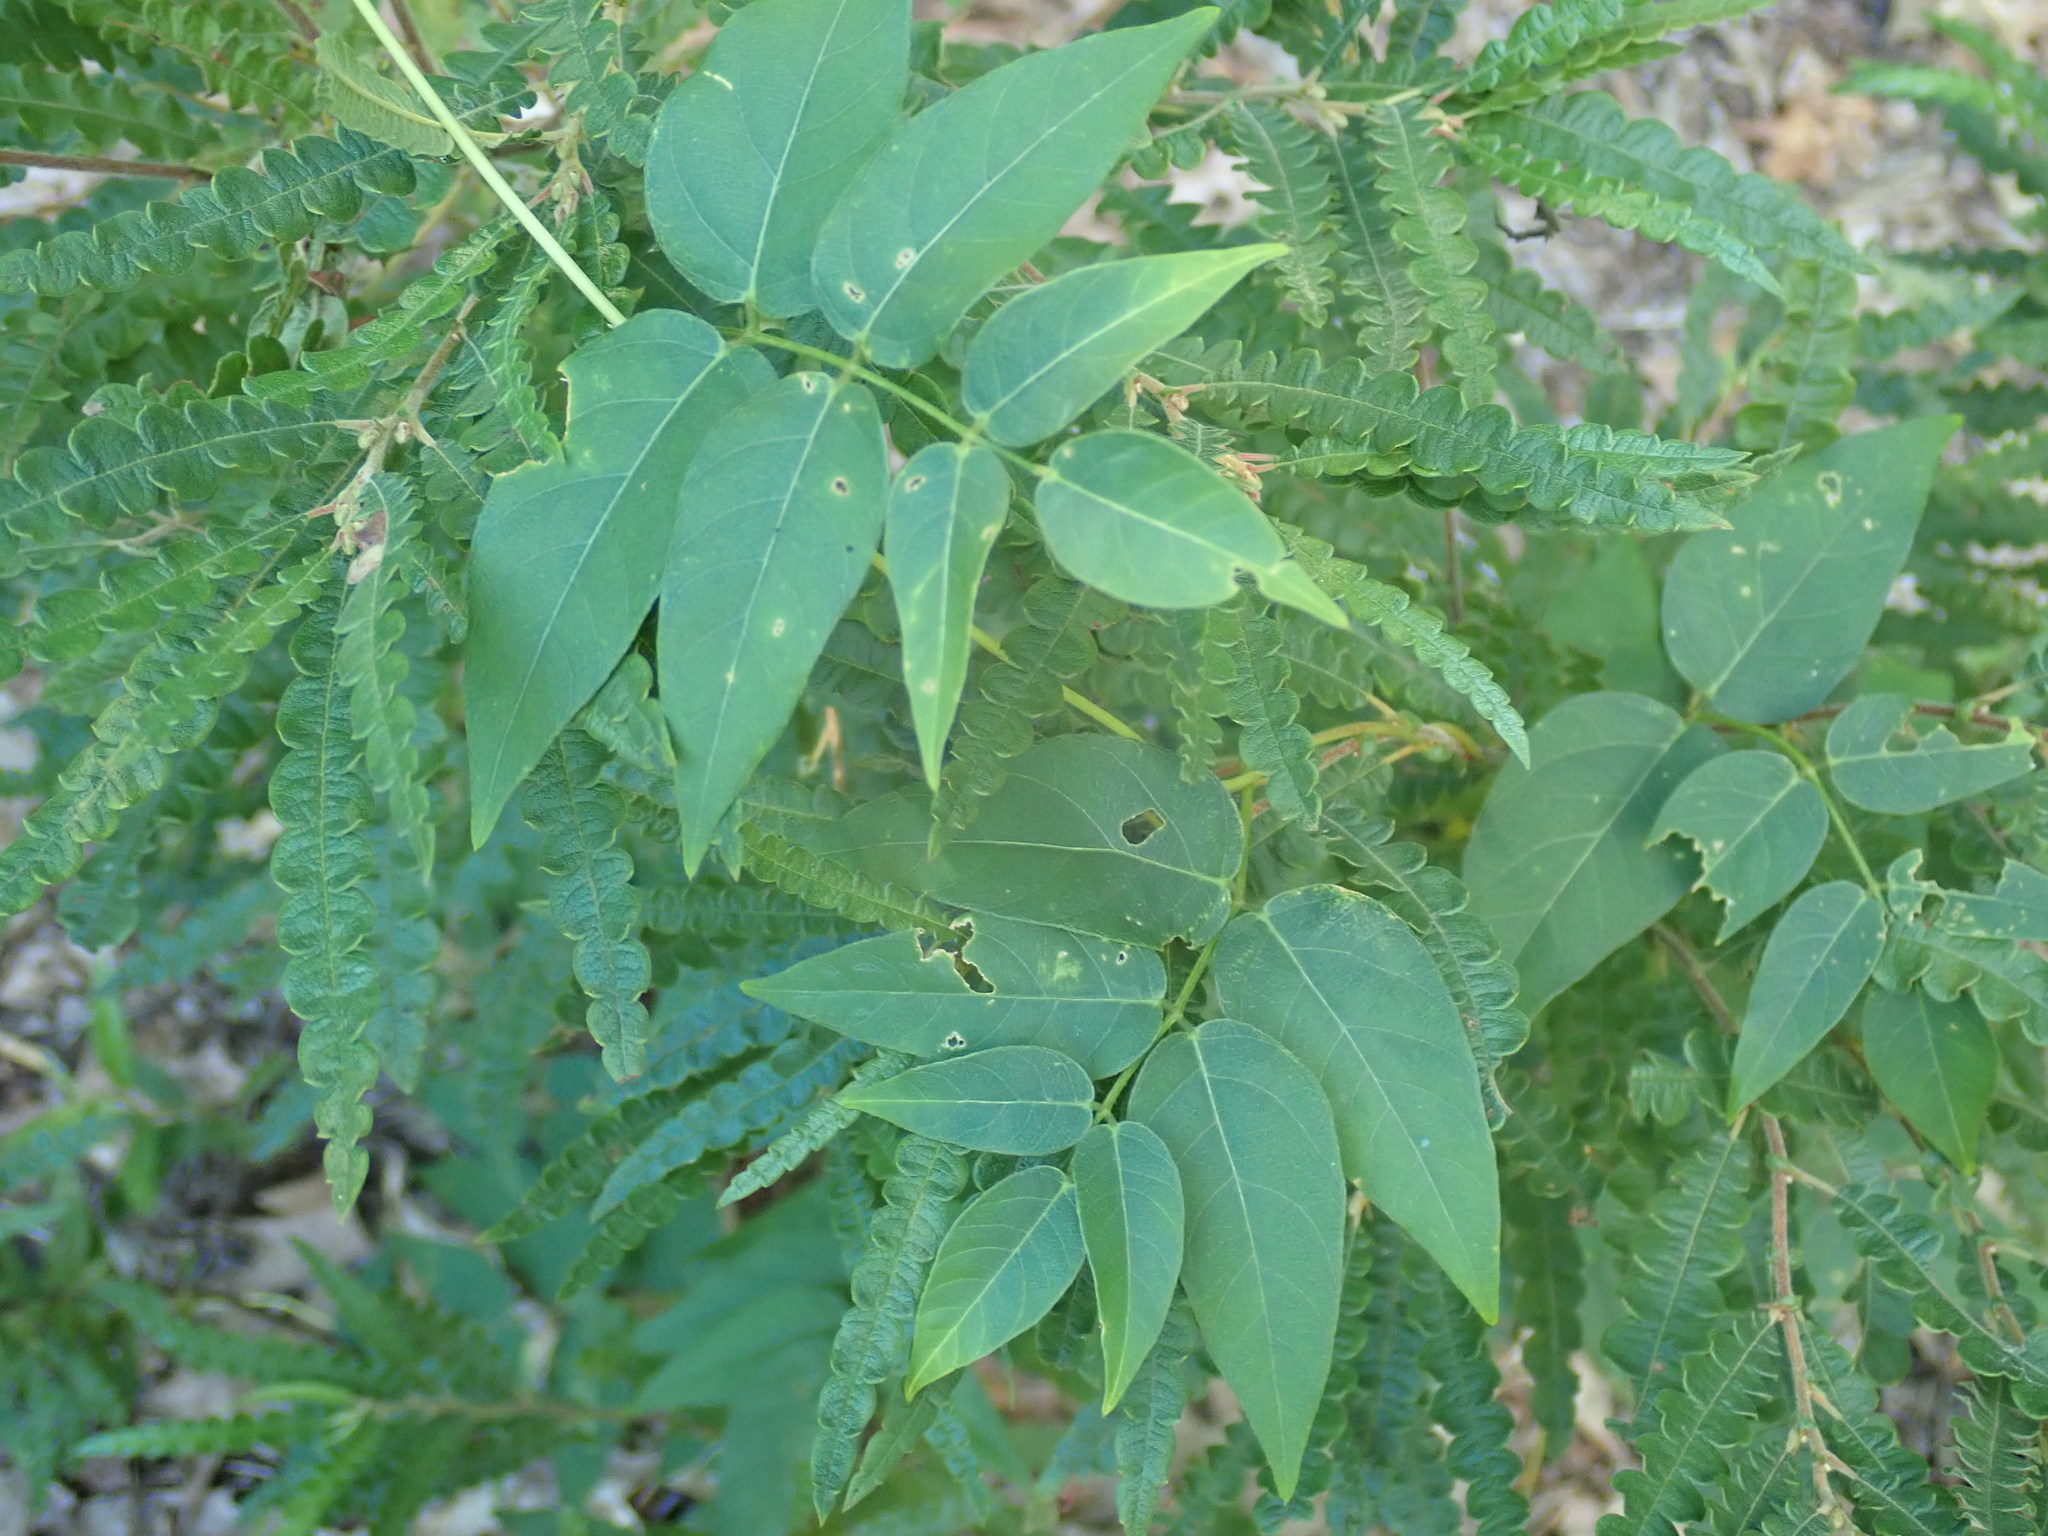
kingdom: Plantae
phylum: Tracheophyta
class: Magnoliopsida
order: Fabales
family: Fabaceae
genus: Apios
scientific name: Apios americana
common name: American potato-bean
